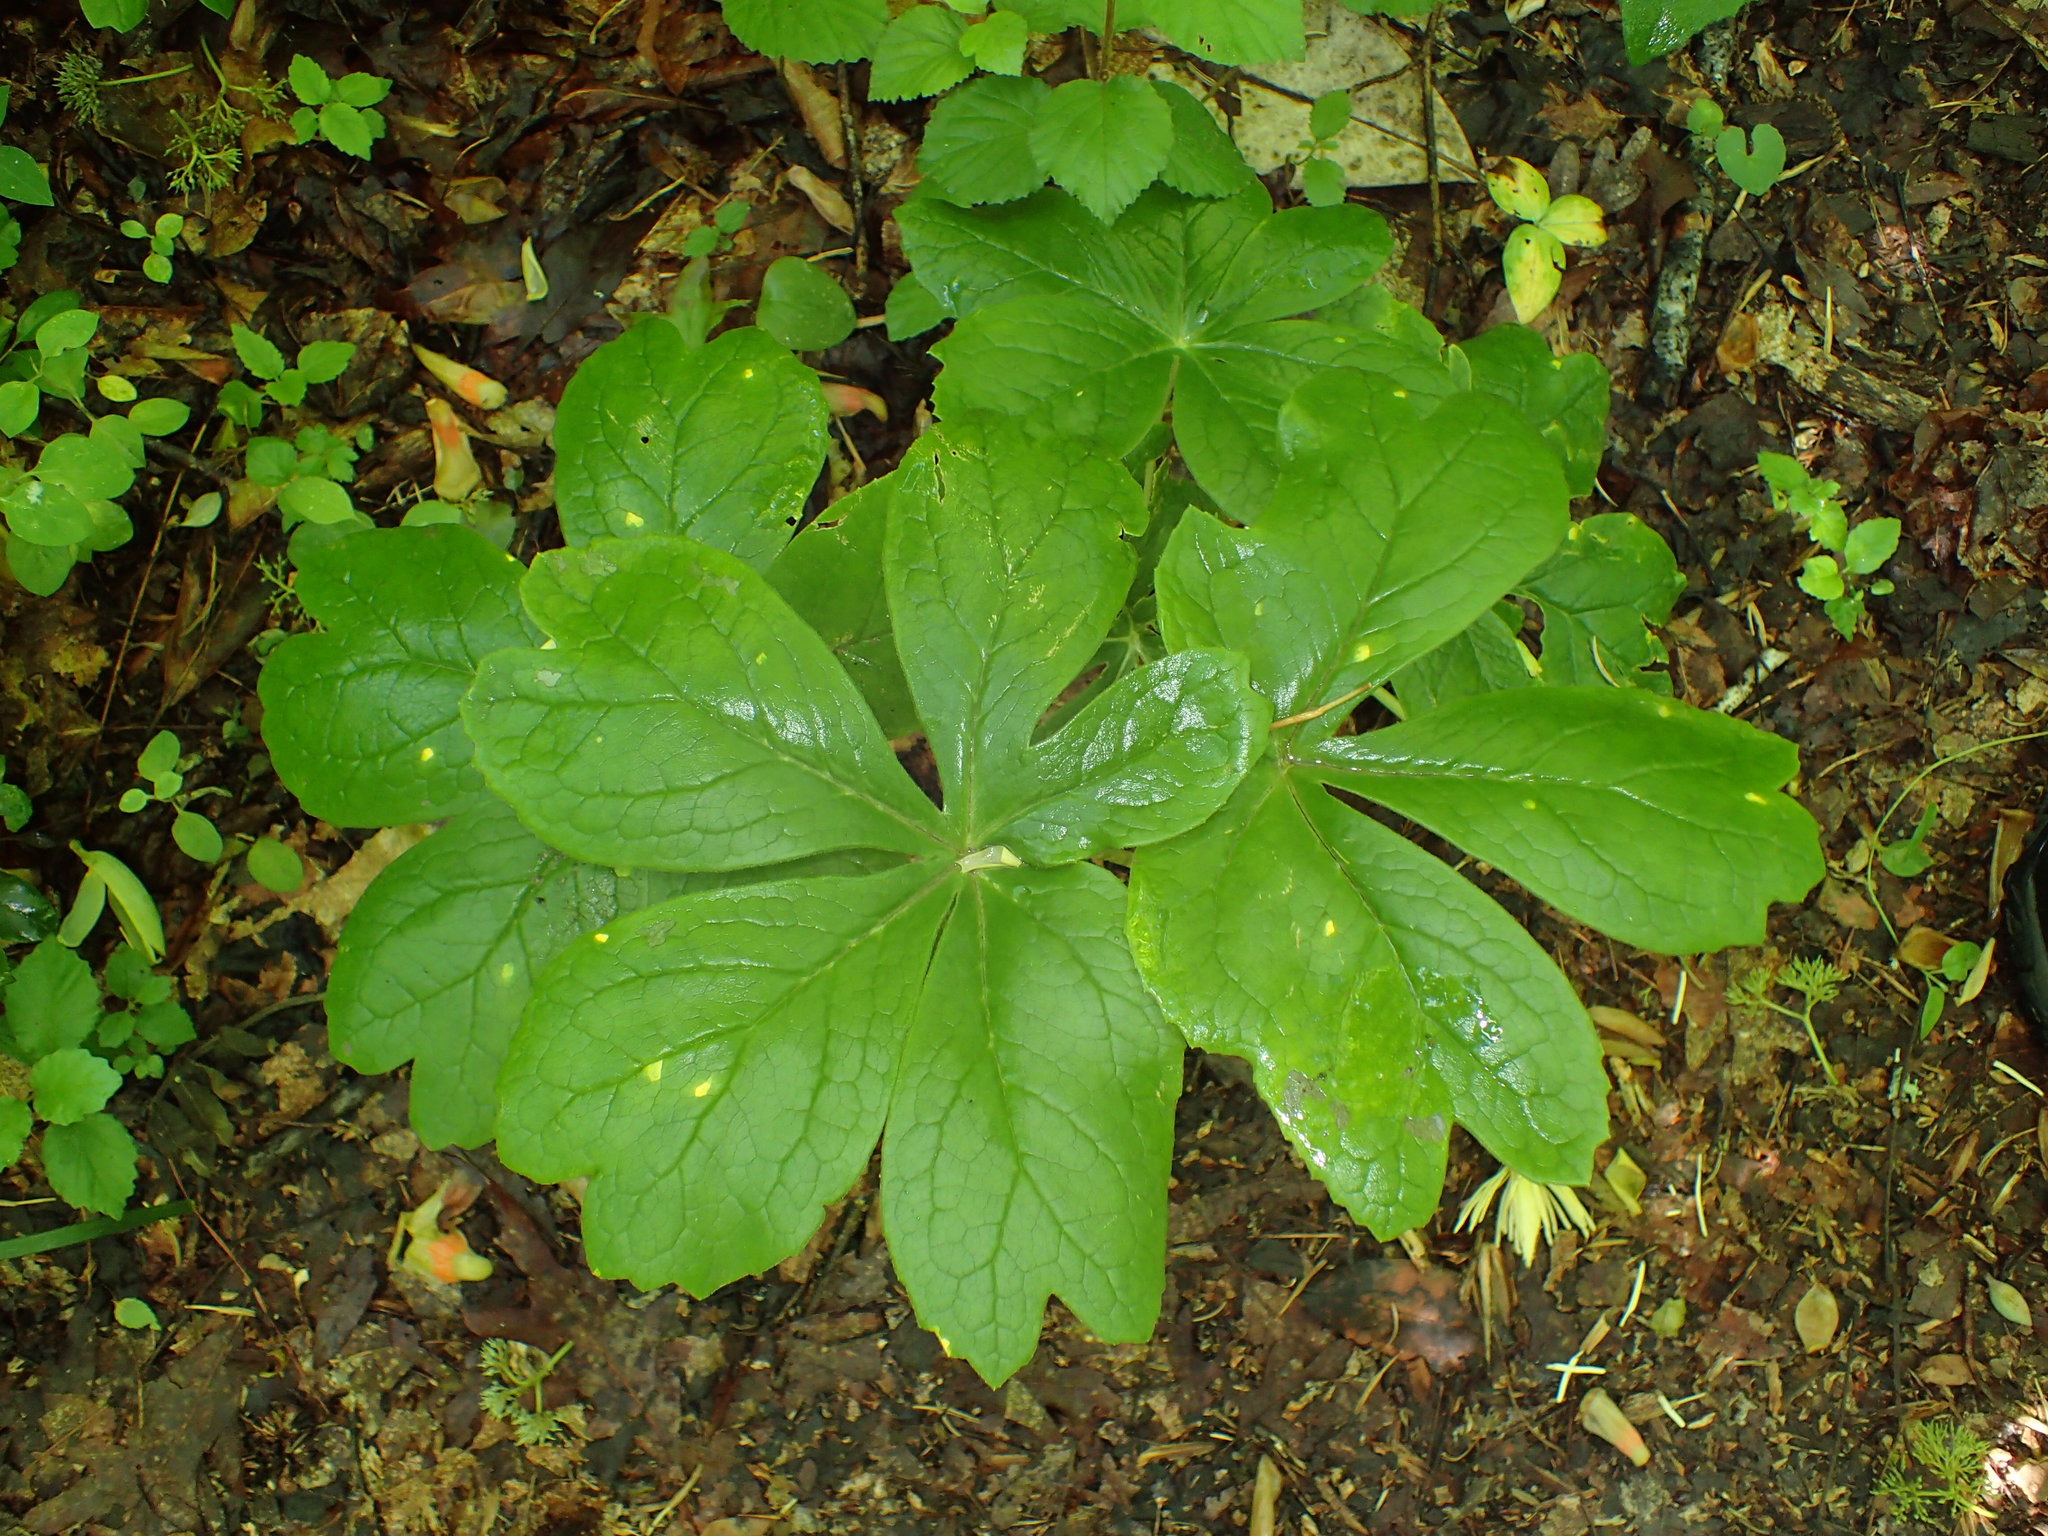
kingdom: Plantae
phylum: Tracheophyta
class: Magnoliopsida
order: Ranunculales
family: Berberidaceae
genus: Podophyllum
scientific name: Podophyllum peltatum
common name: Wild mandrake
